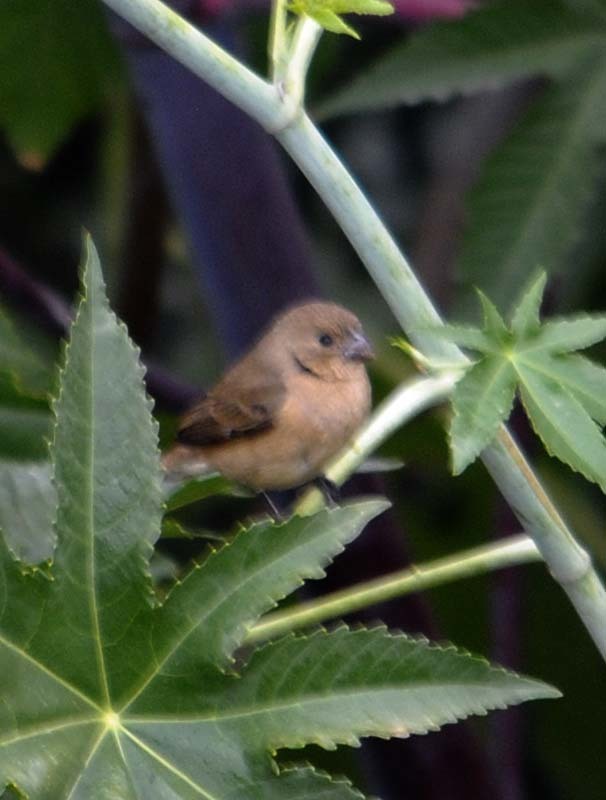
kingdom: Animalia
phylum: Chordata
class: Aves
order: Passeriformes
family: Thraupidae
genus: Sporophila
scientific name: Sporophila torqueola
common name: White-collared seedeater
